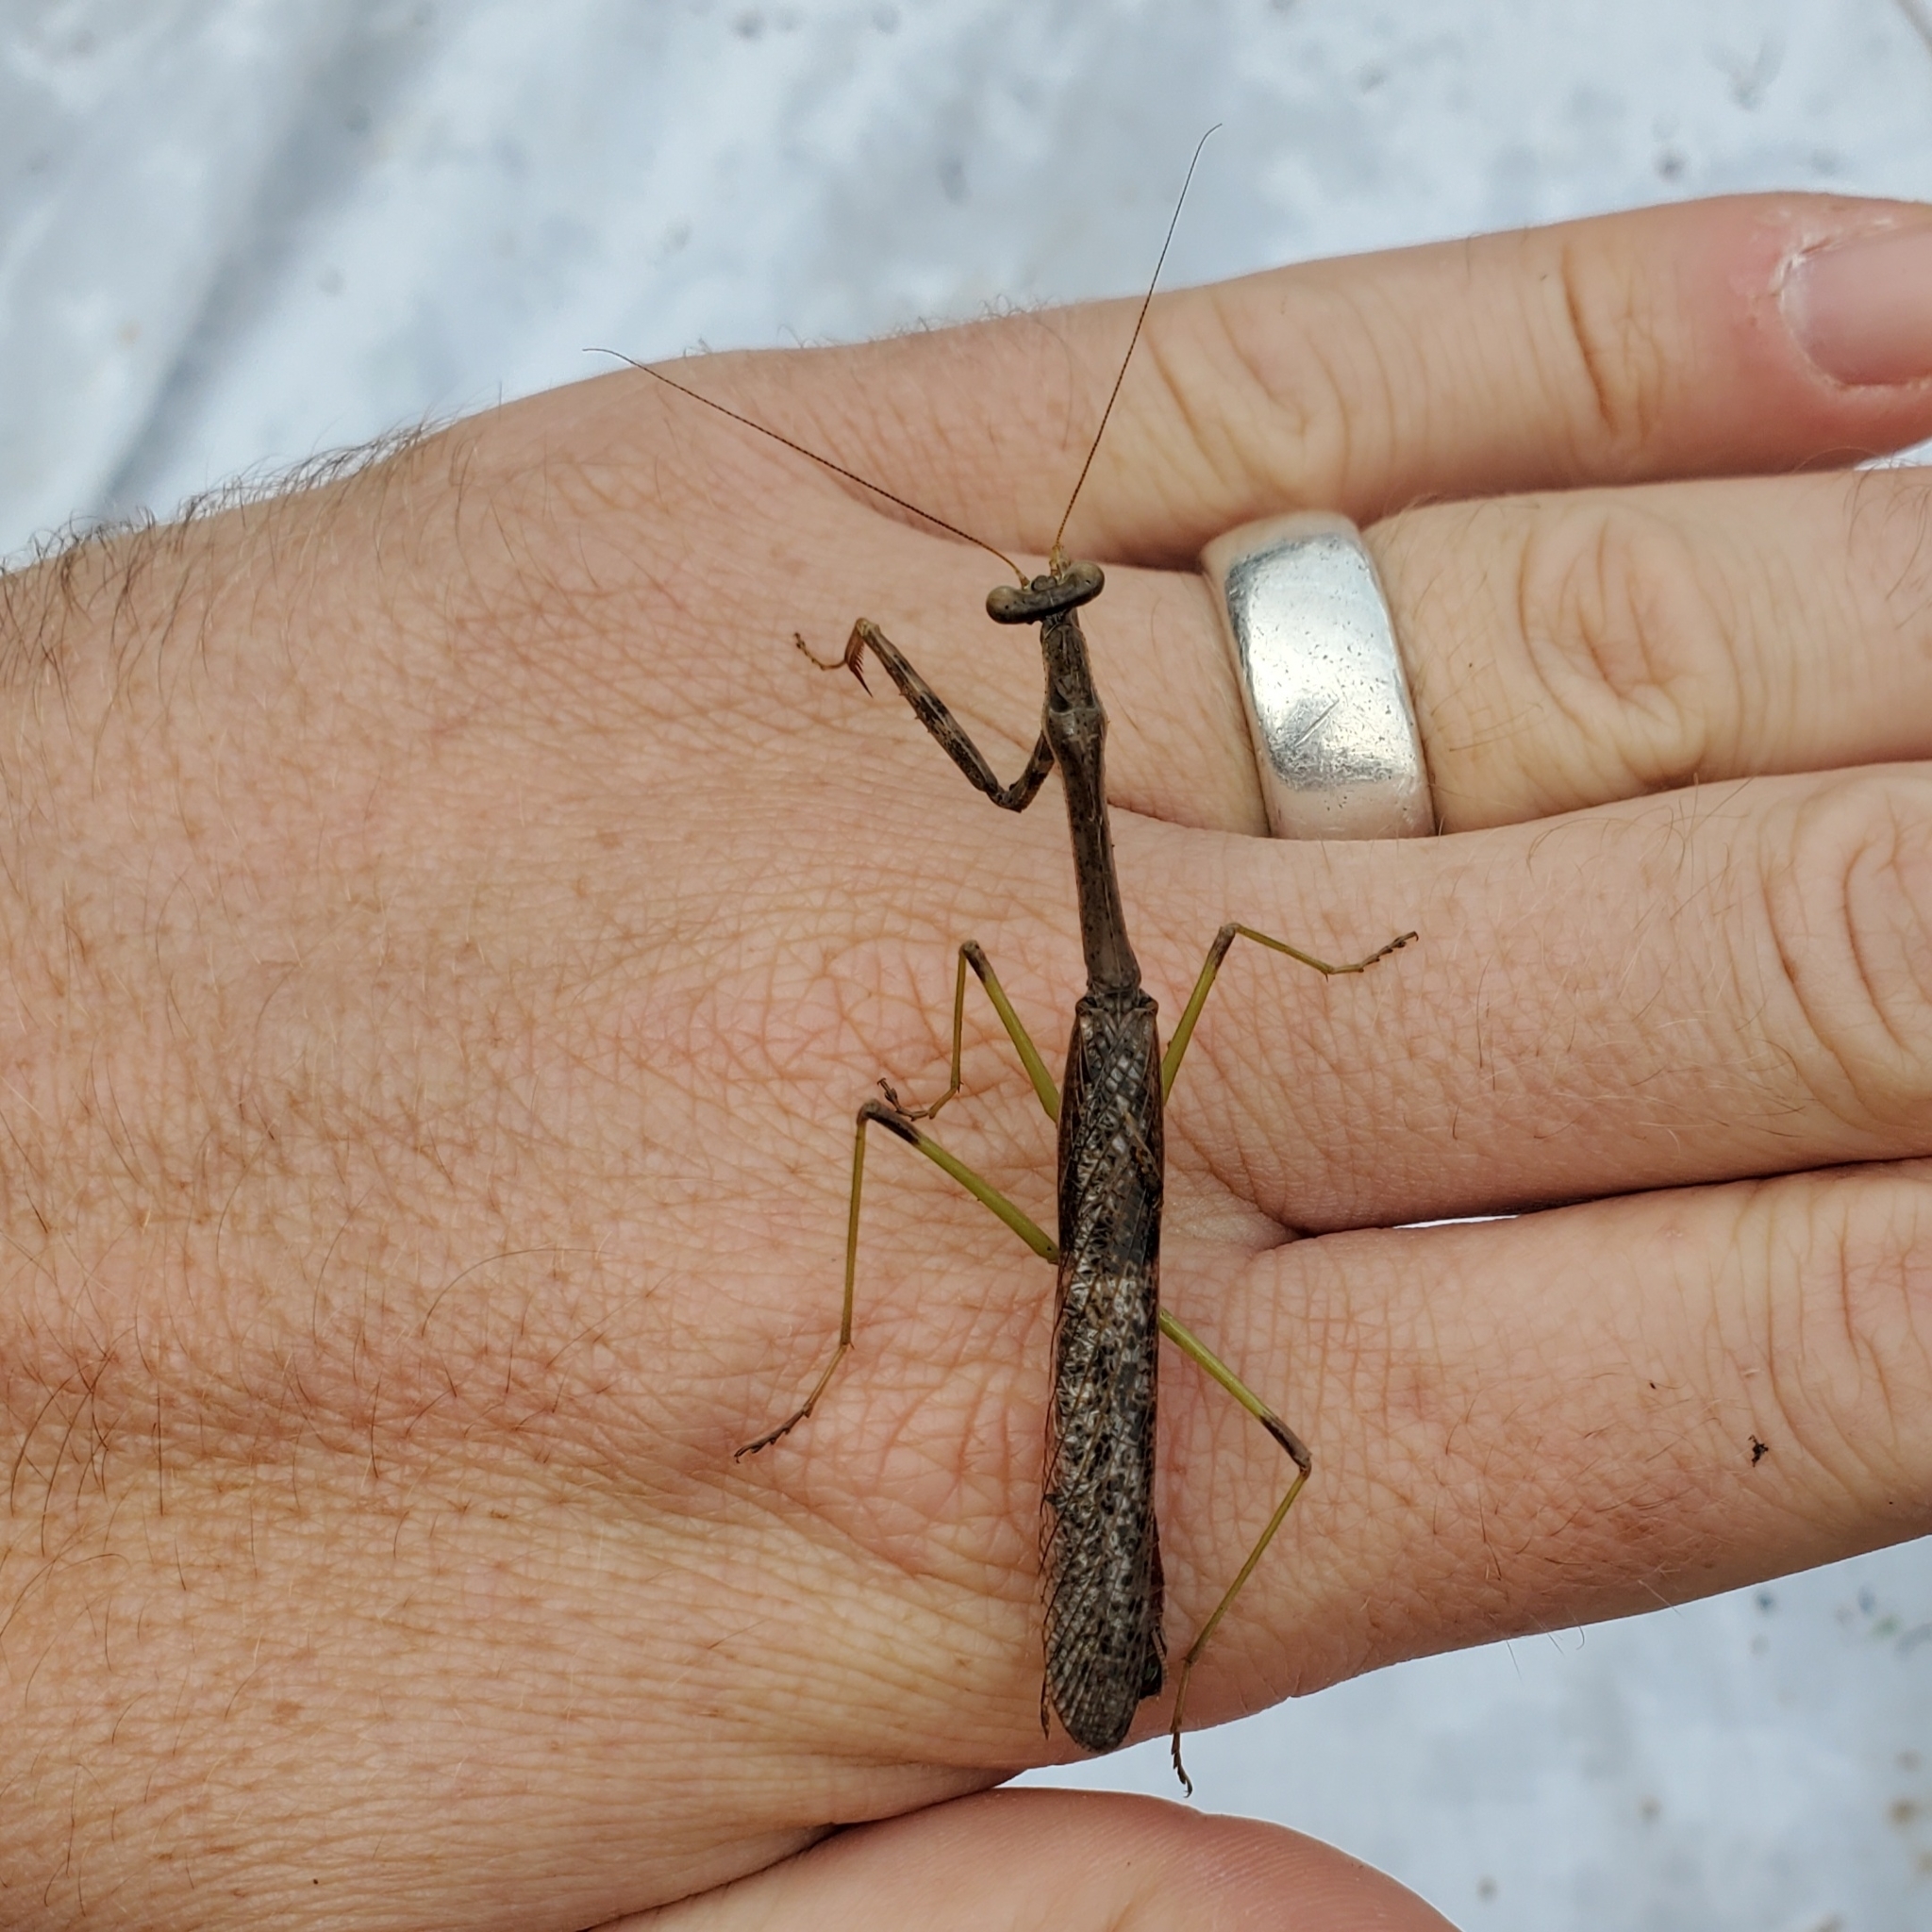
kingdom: Animalia
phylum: Arthropoda
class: Insecta
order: Mantodea
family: Mantidae
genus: Stagmomantis
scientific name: Stagmomantis carolina
